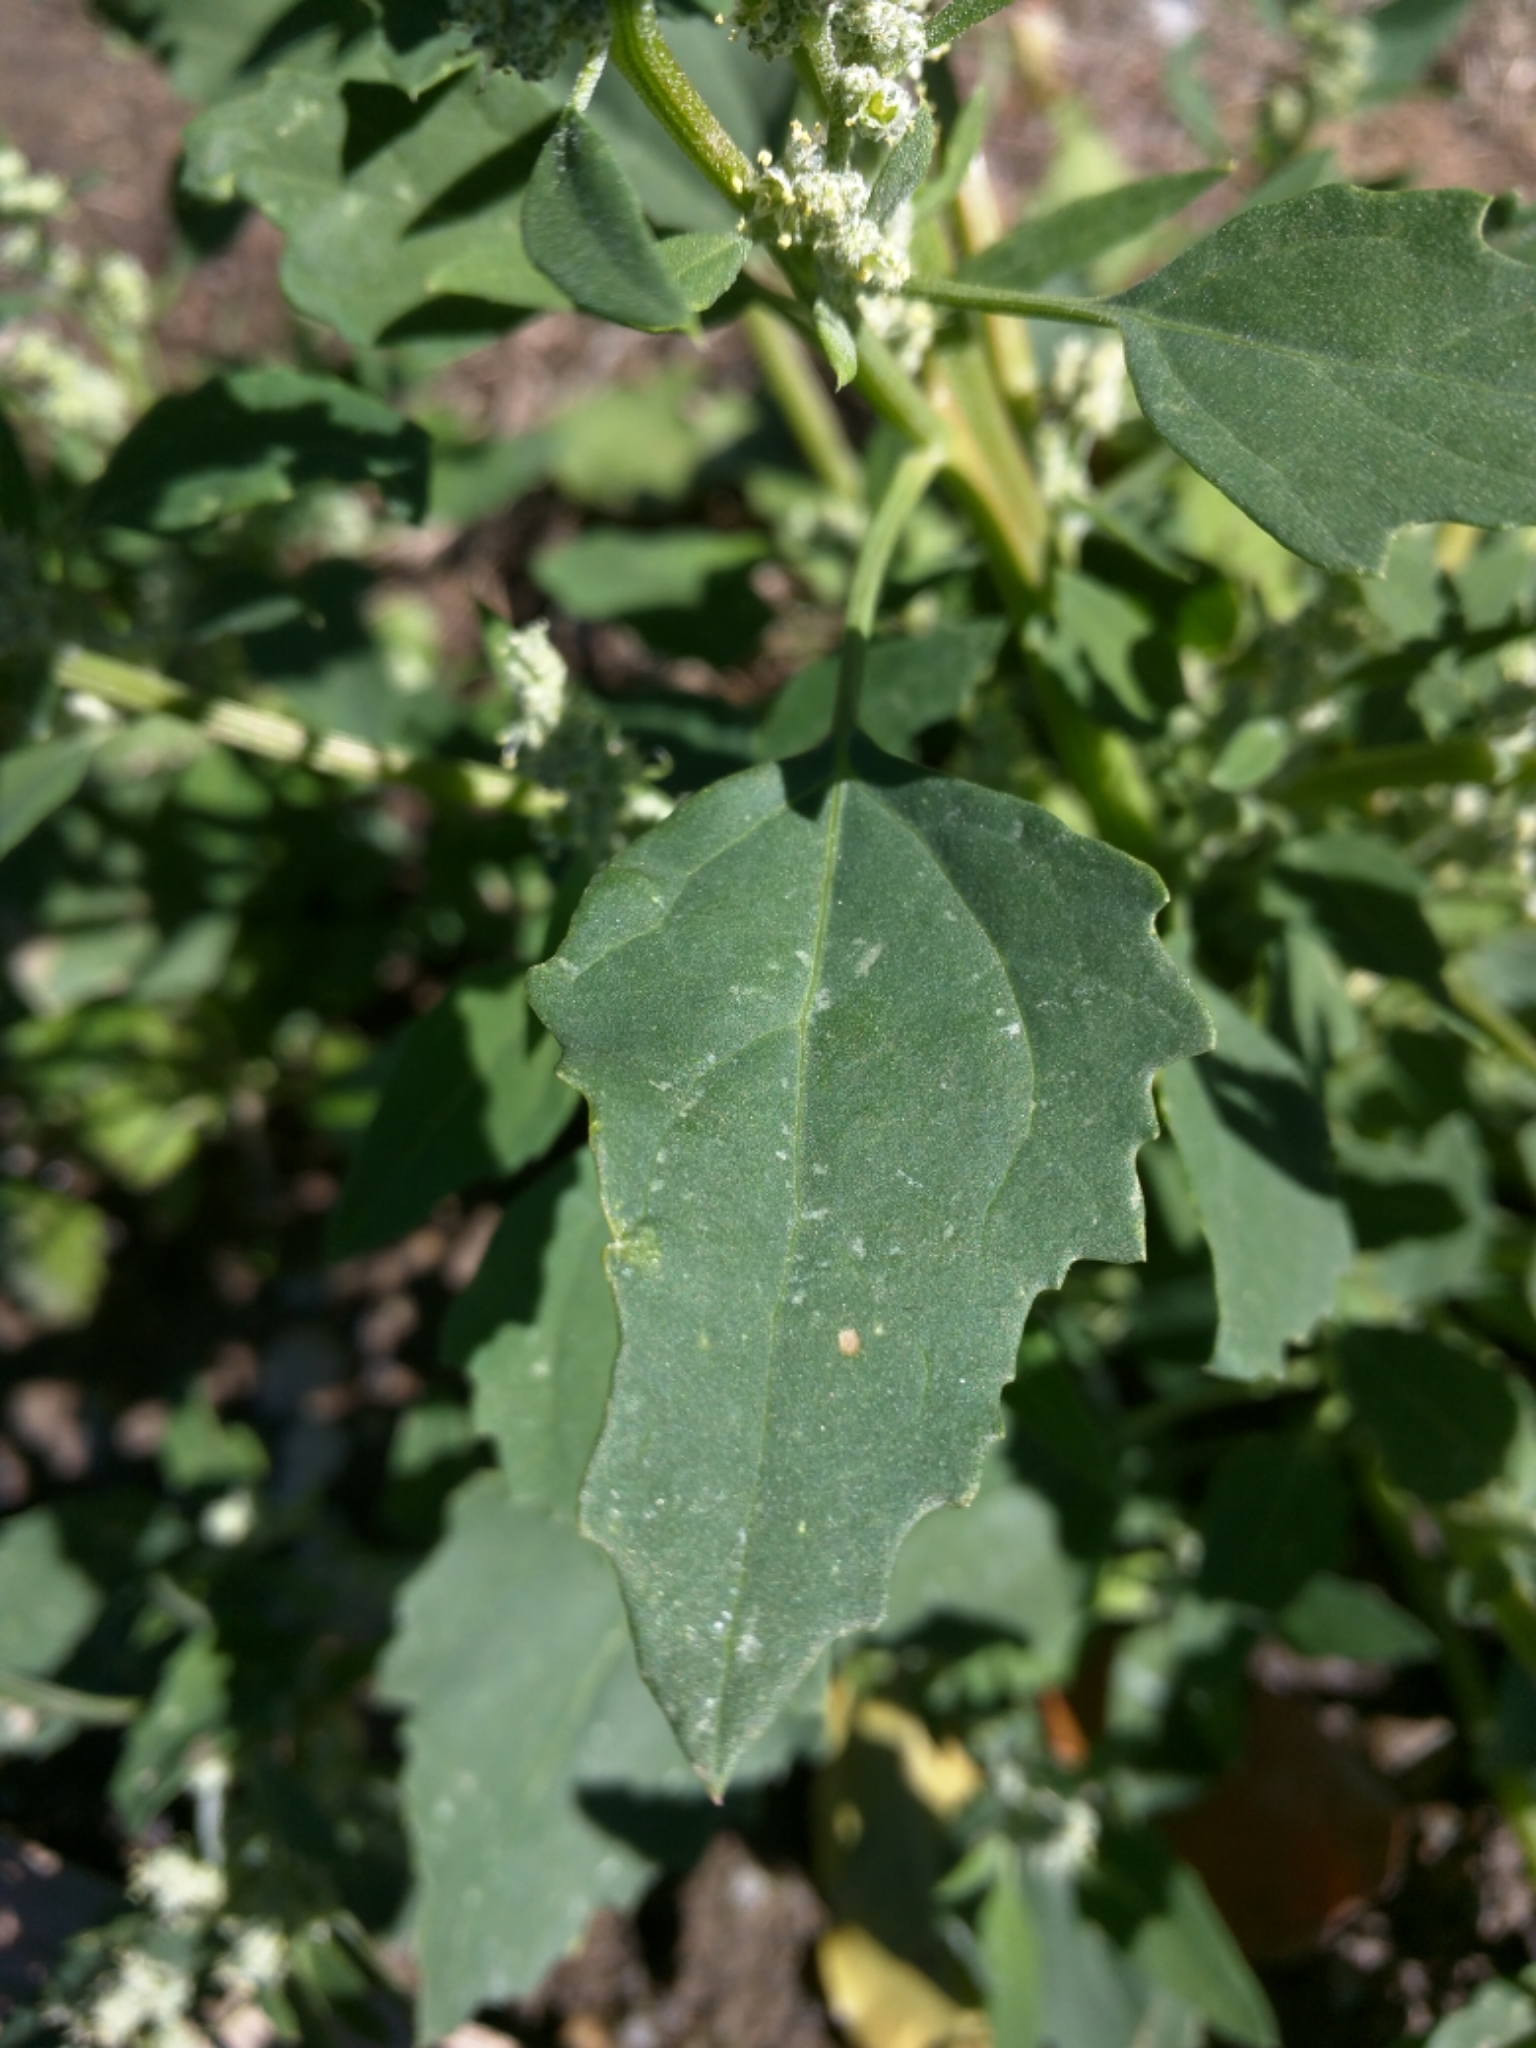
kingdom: Plantae
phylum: Tracheophyta
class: Magnoliopsida
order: Caryophyllales
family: Amaranthaceae
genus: Chenopodium
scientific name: Chenopodium album
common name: Fat-hen
